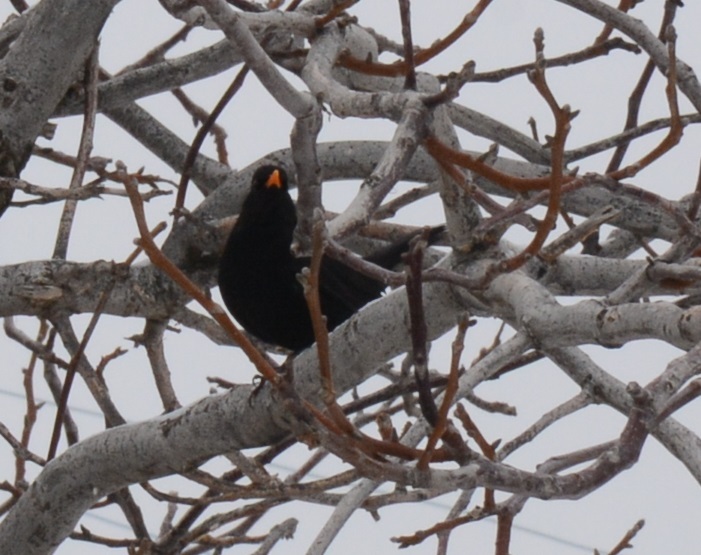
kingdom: Animalia
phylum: Chordata
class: Aves
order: Passeriformes
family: Turdidae
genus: Turdus
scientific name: Turdus merula
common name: Common blackbird
